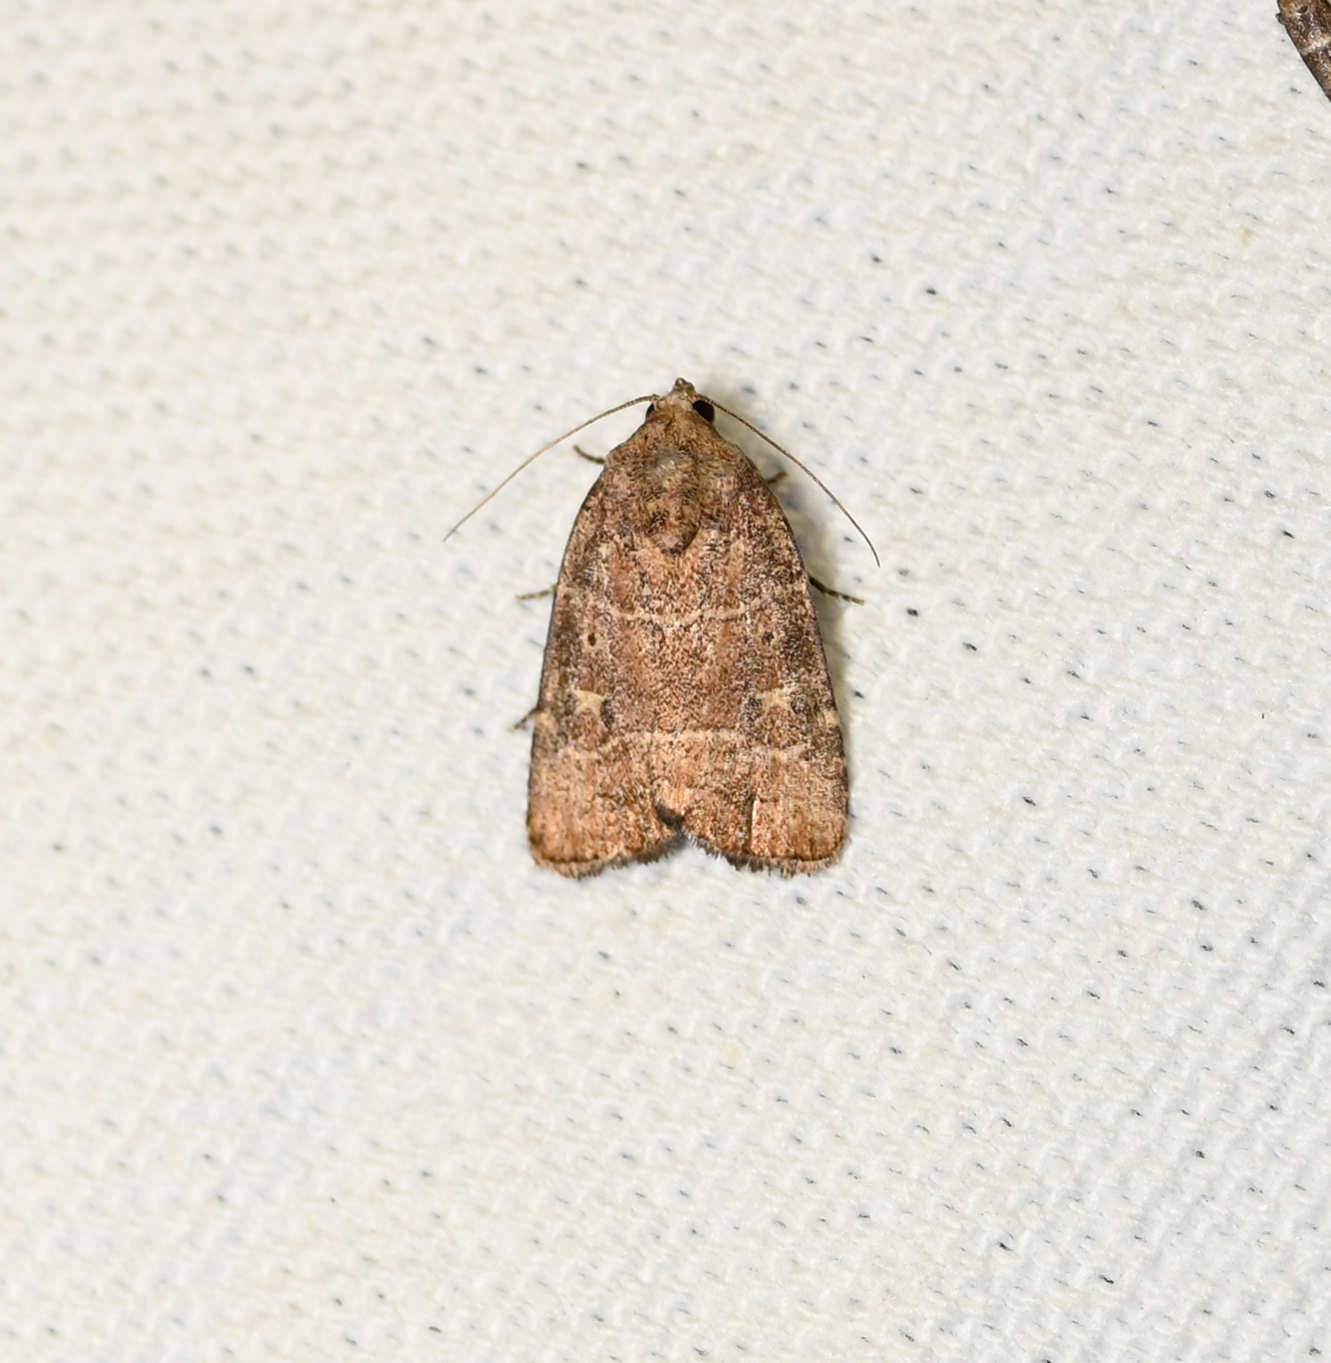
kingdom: Animalia
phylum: Arthropoda
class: Insecta
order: Lepidoptera
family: Noctuidae
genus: Elaphria
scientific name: Elaphria grata
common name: Grateful midget moth
